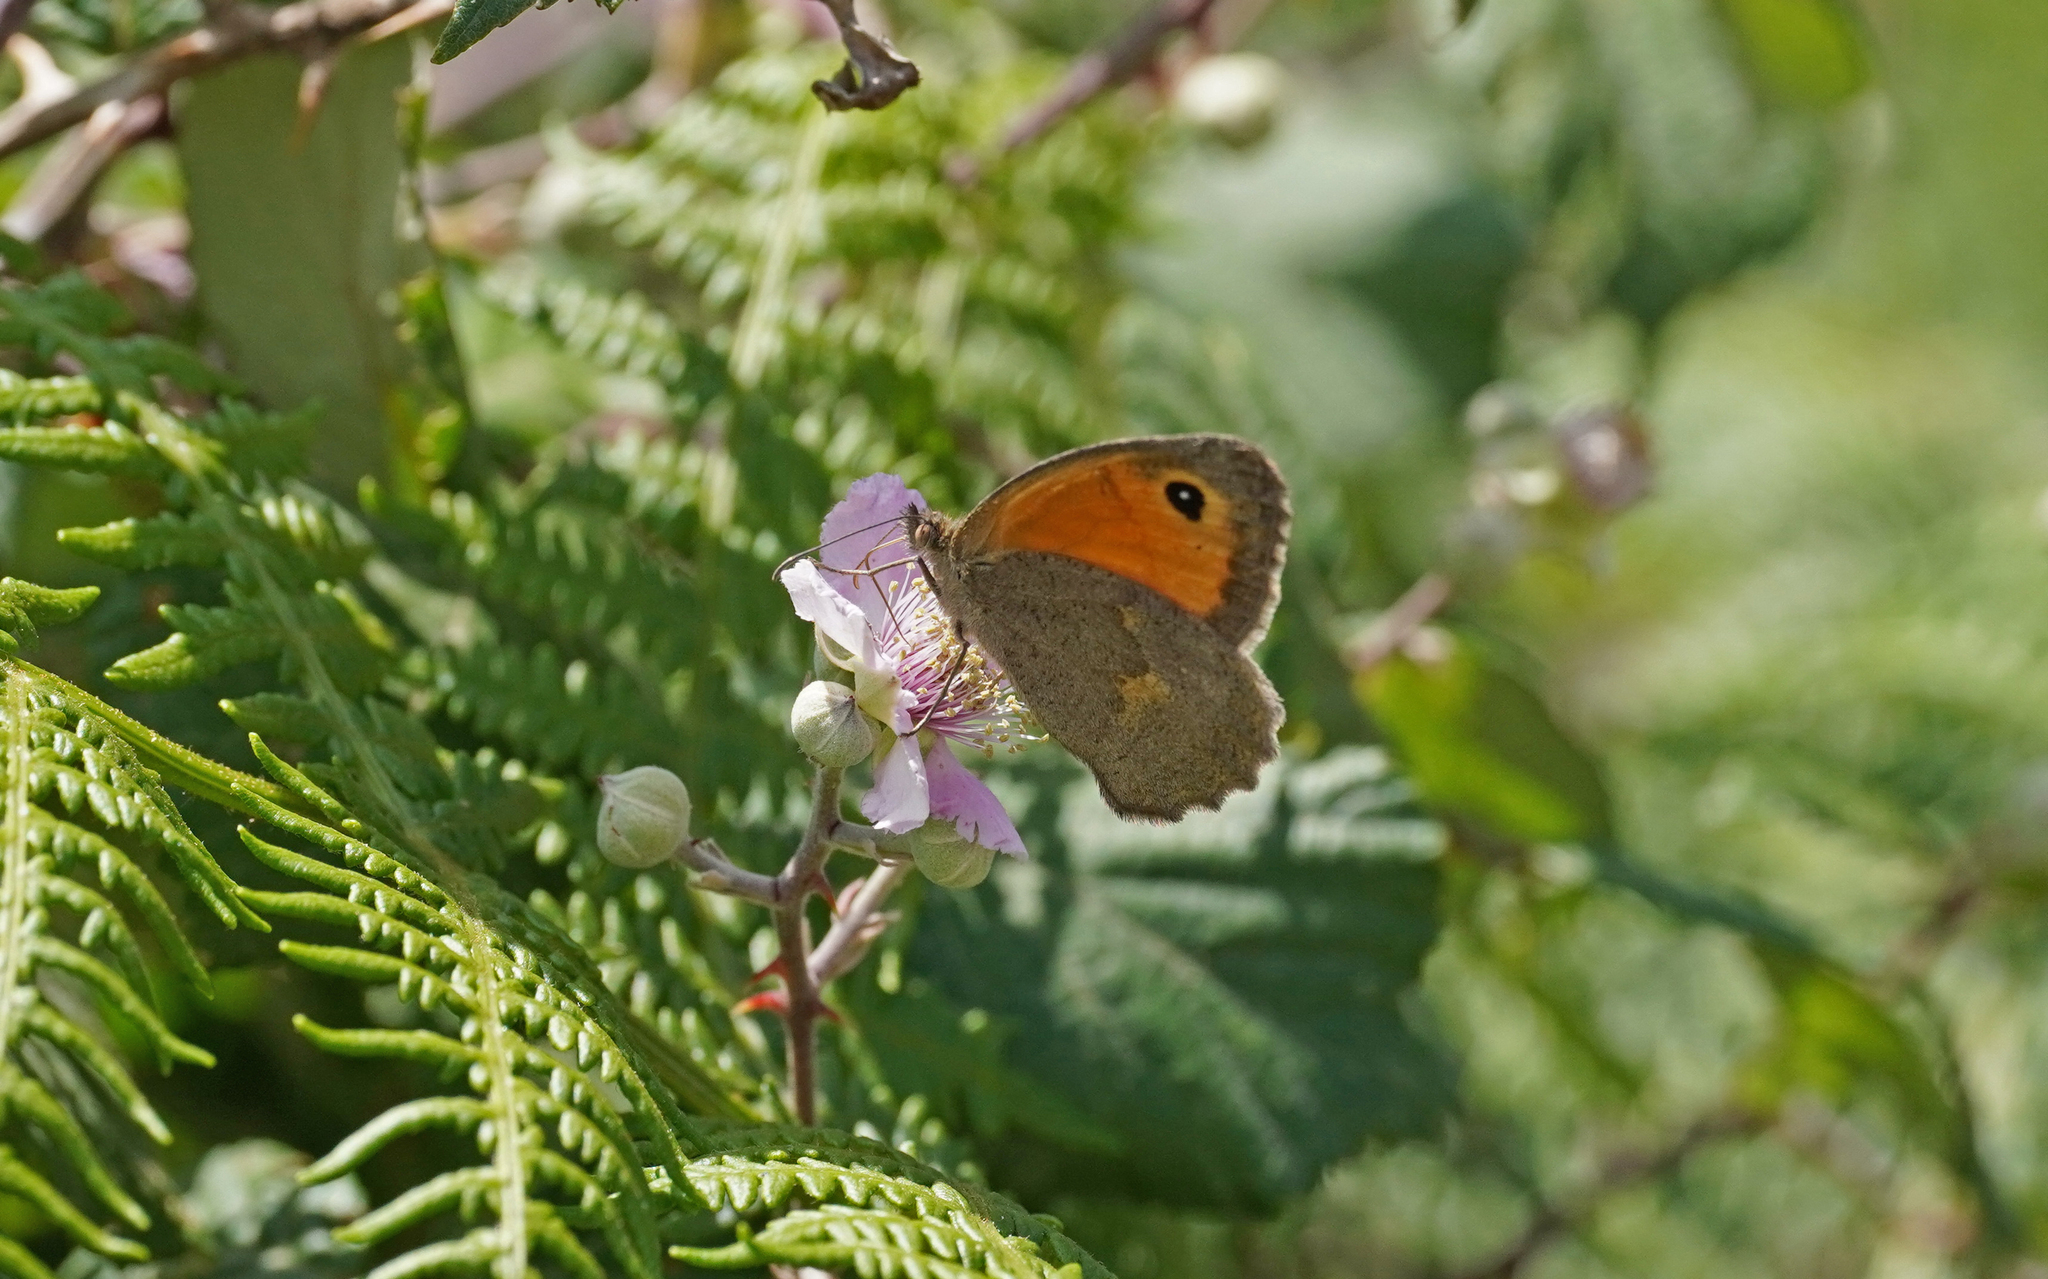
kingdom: Animalia
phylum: Arthropoda
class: Insecta
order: Lepidoptera
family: Nymphalidae
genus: Maniola
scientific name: Maniola nurag
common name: Sardinian meadow brown
